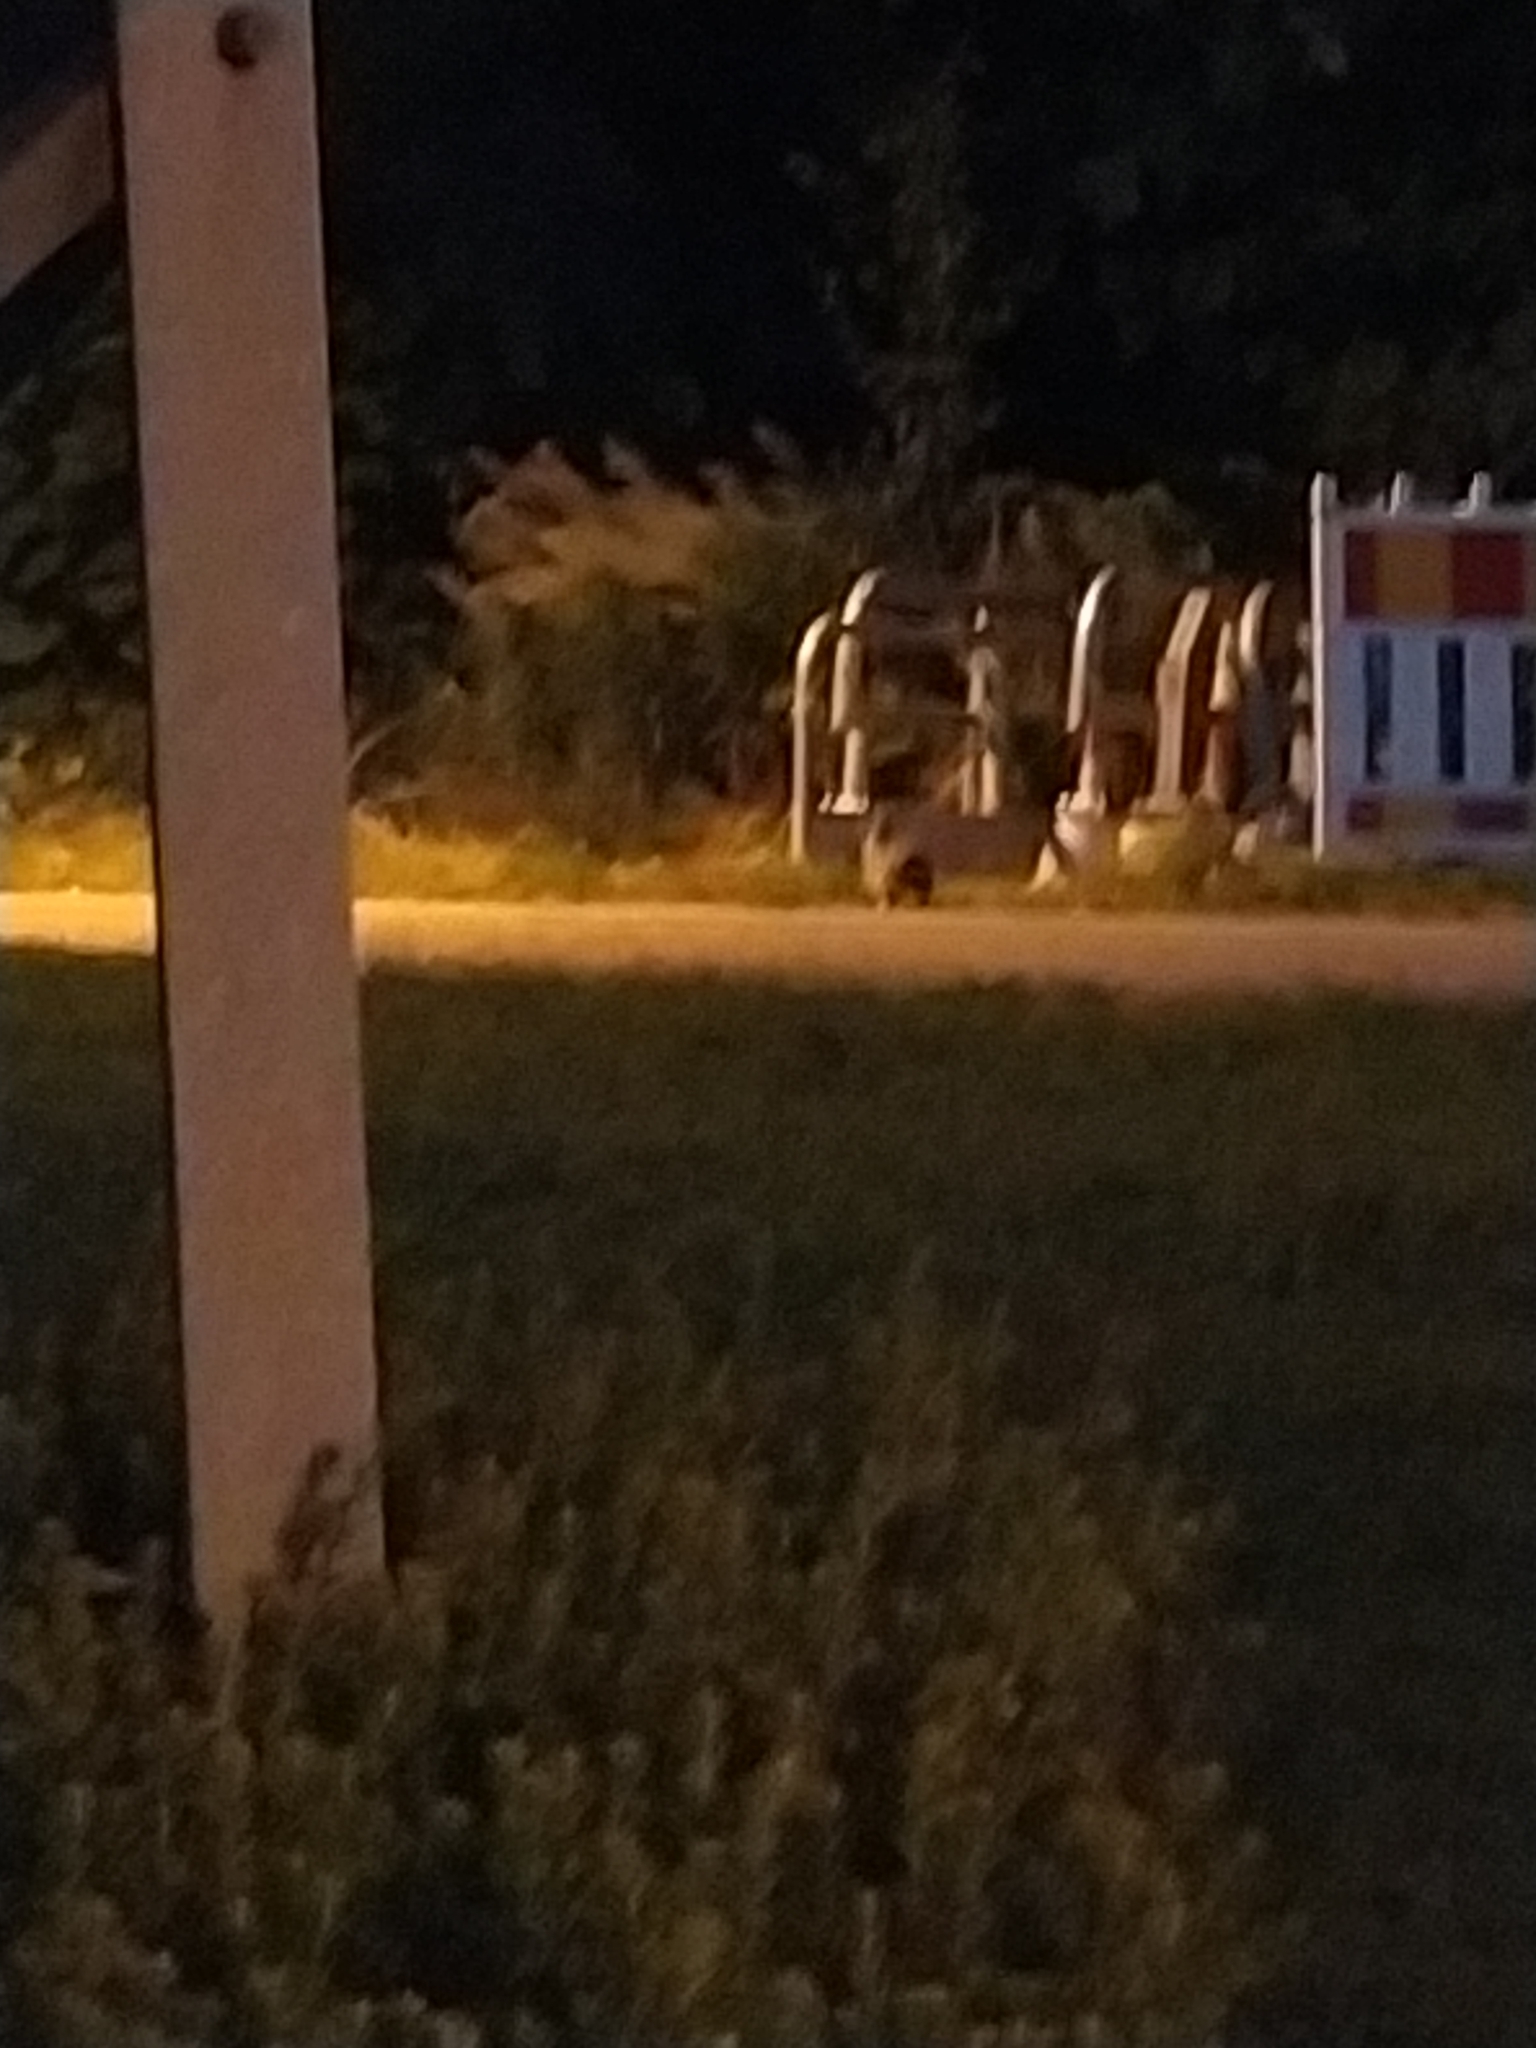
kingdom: Animalia
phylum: Chordata
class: Mammalia
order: Lagomorpha
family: Leporidae
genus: Oryctolagus
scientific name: Oryctolagus cuniculus
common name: European rabbit
